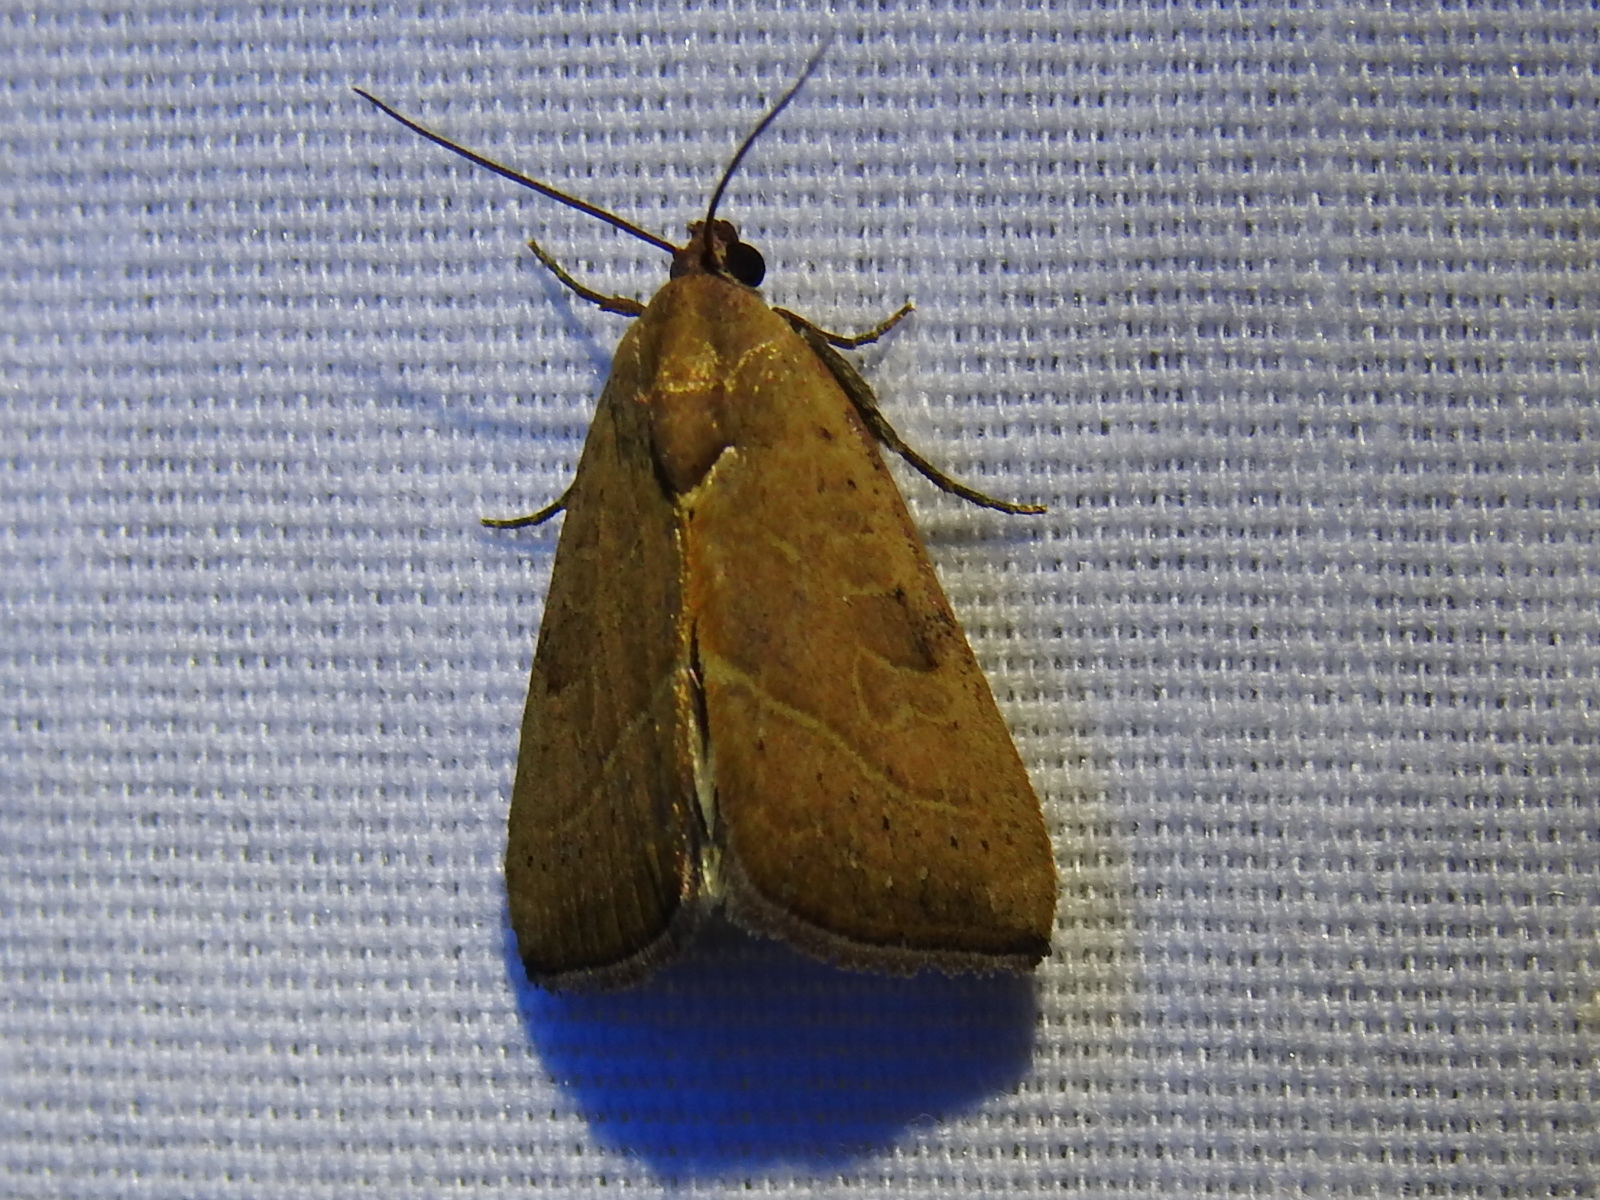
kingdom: Animalia
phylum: Arthropoda
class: Insecta
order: Lepidoptera
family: Noctuidae
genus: Galgula
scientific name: Galgula partita
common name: Wedgeling
